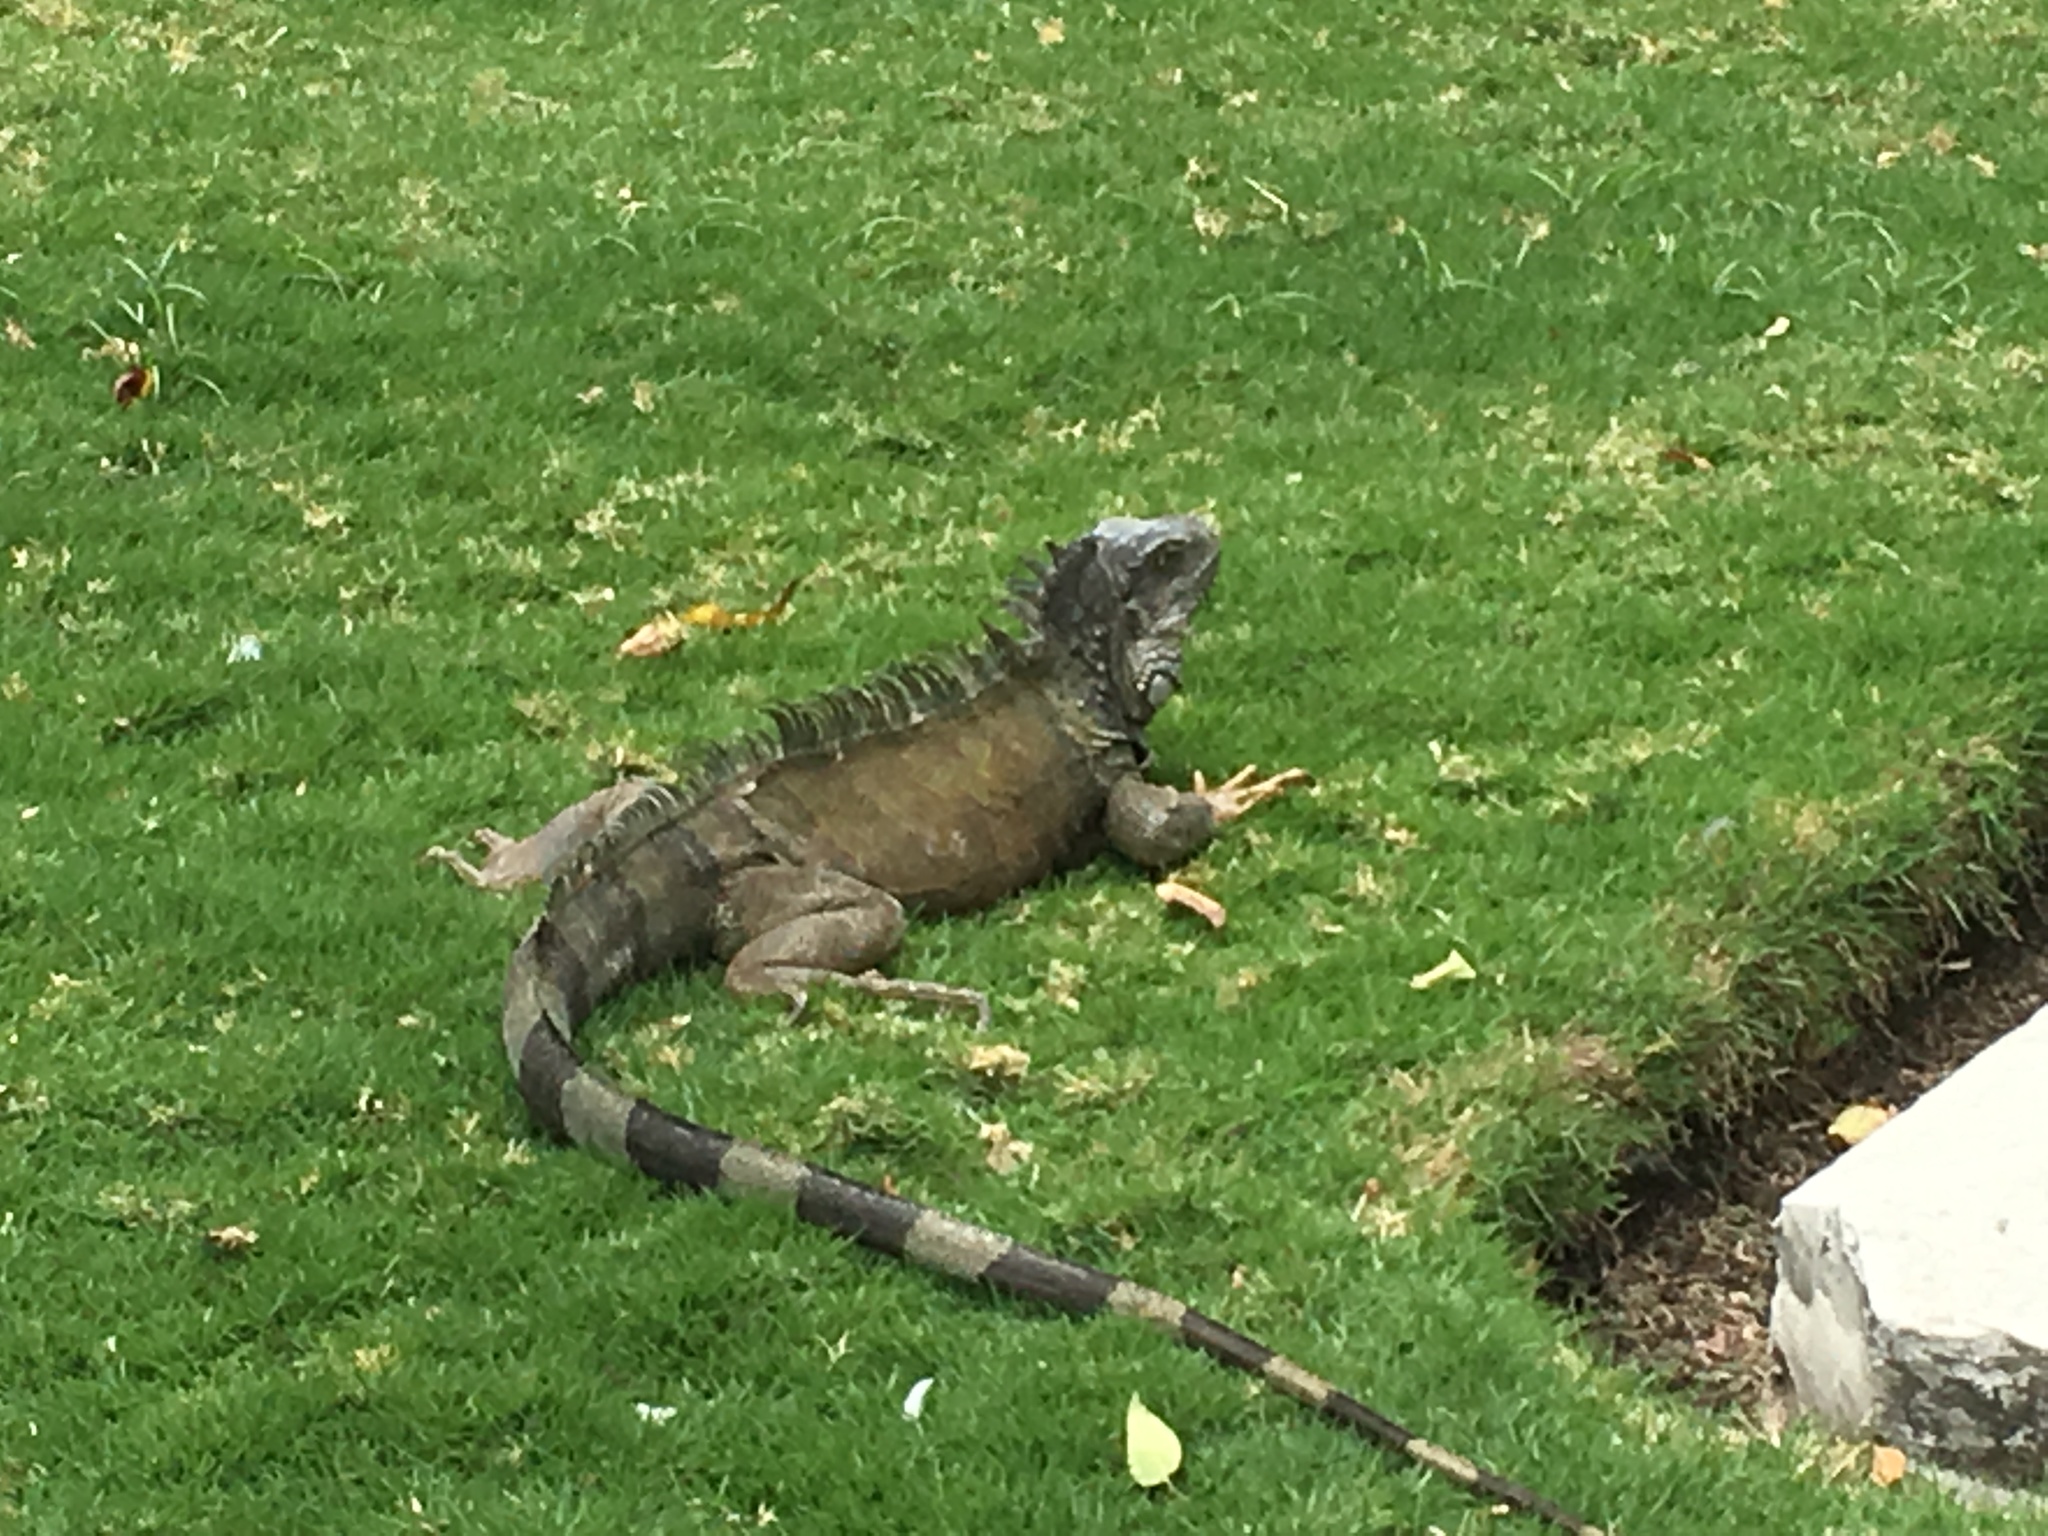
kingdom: Animalia
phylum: Chordata
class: Squamata
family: Iguanidae
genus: Iguana
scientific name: Iguana iguana
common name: Green iguana
